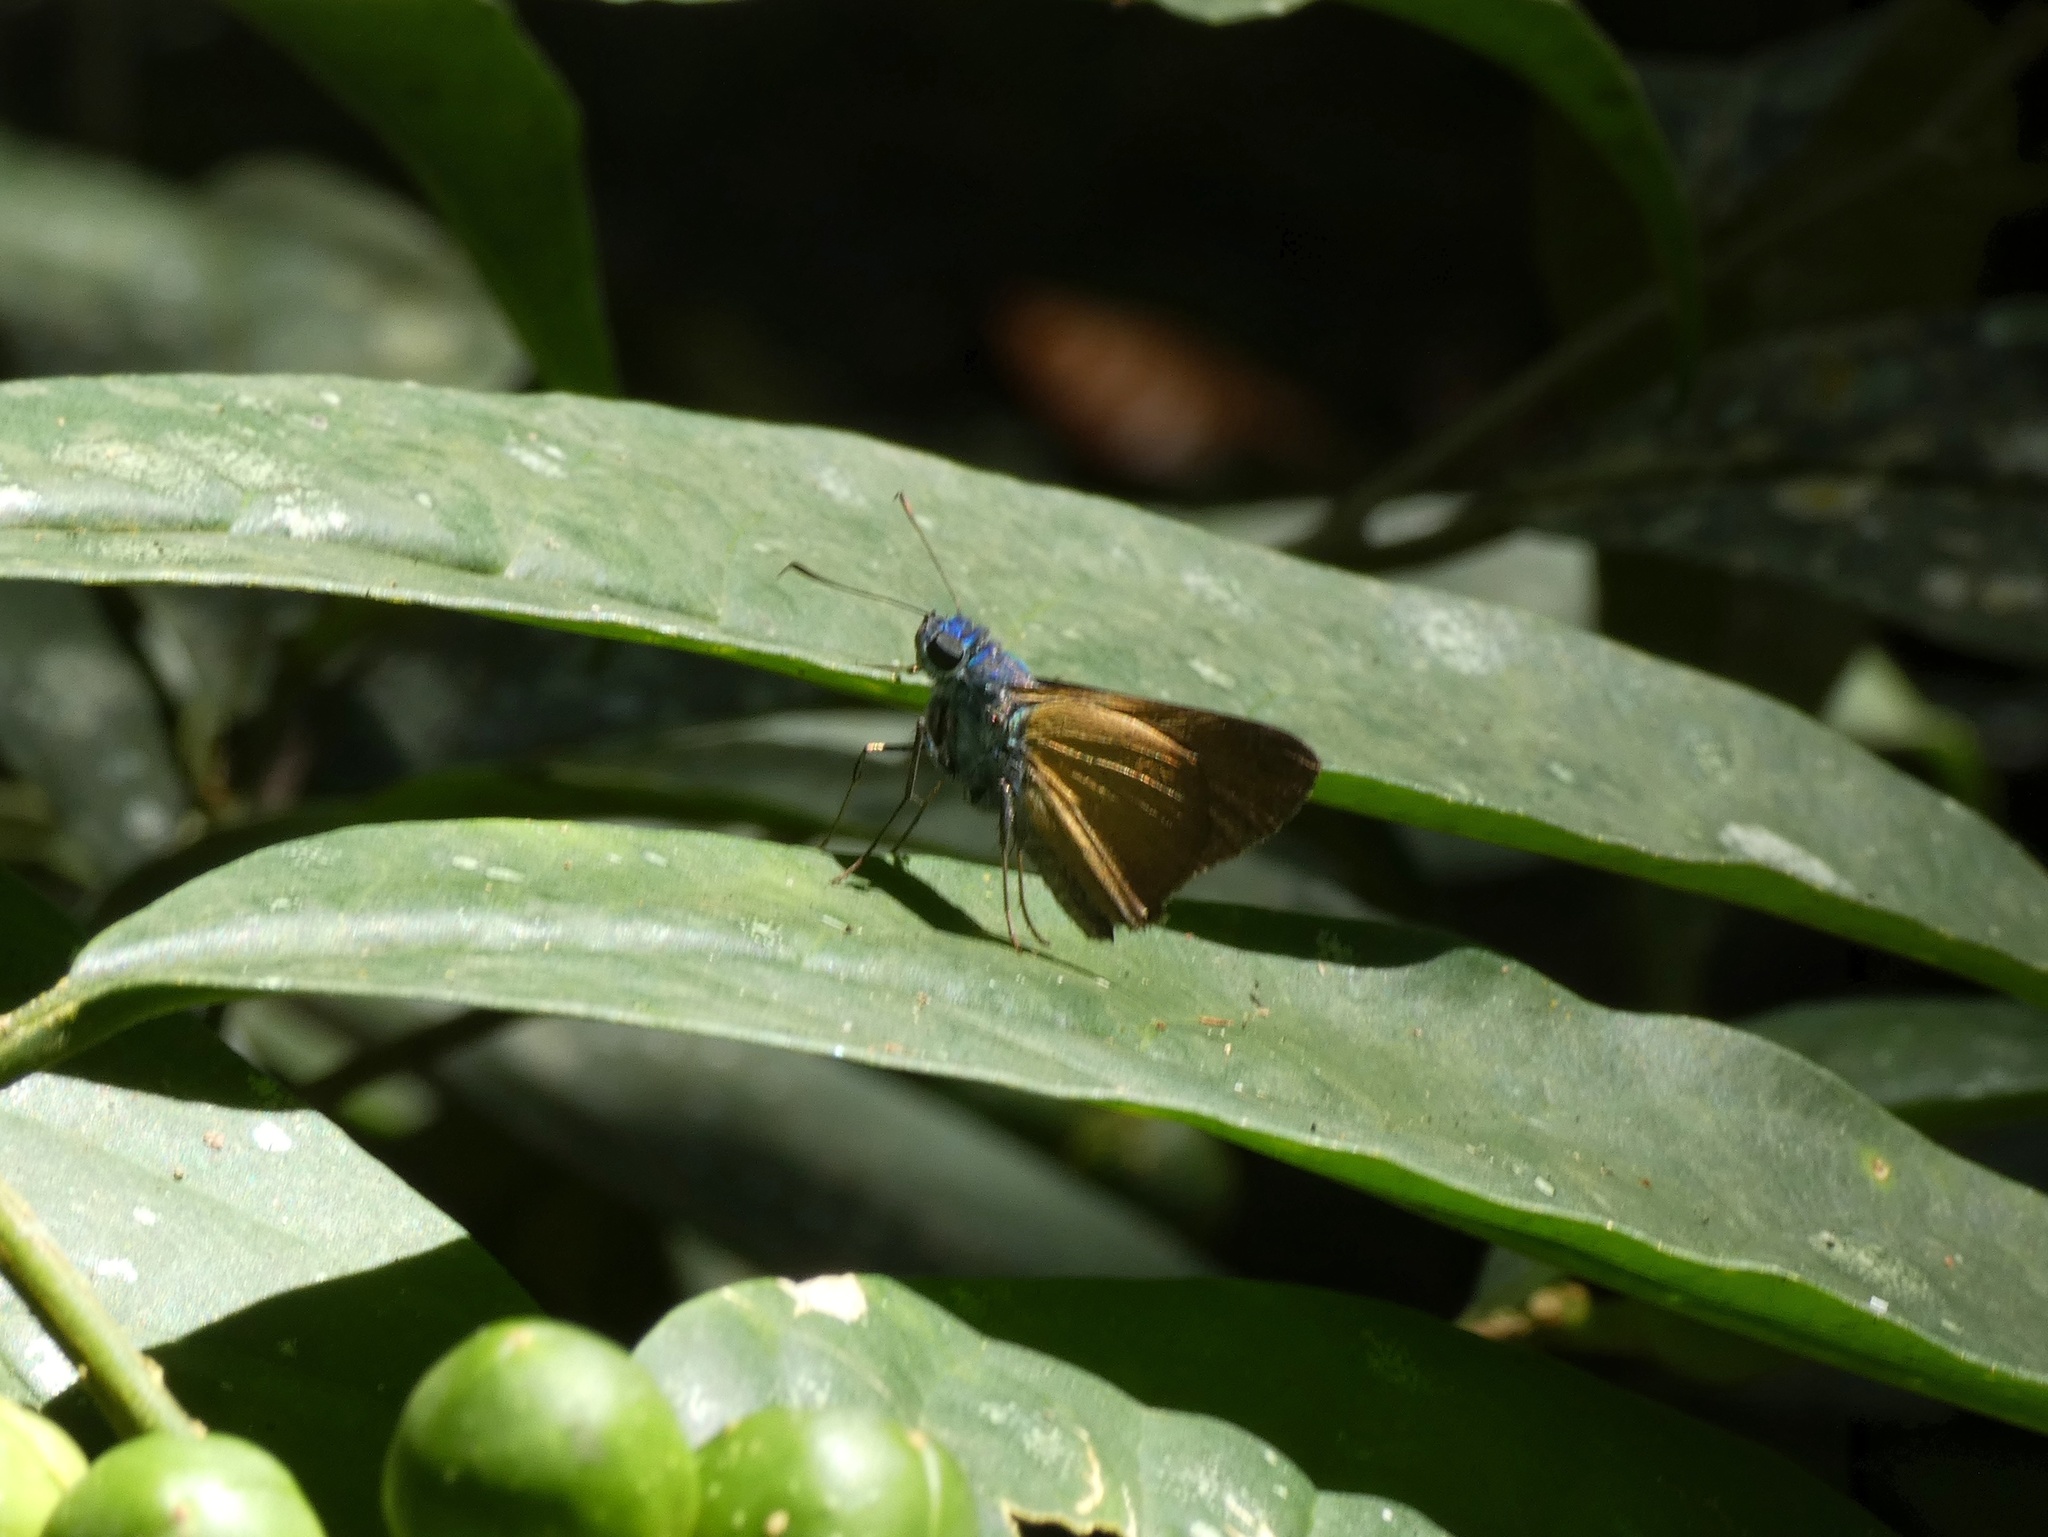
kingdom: Animalia
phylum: Arthropoda
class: Insecta
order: Lepidoptera
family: Hesperiidae
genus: Onophas
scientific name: Onophas columbaria
